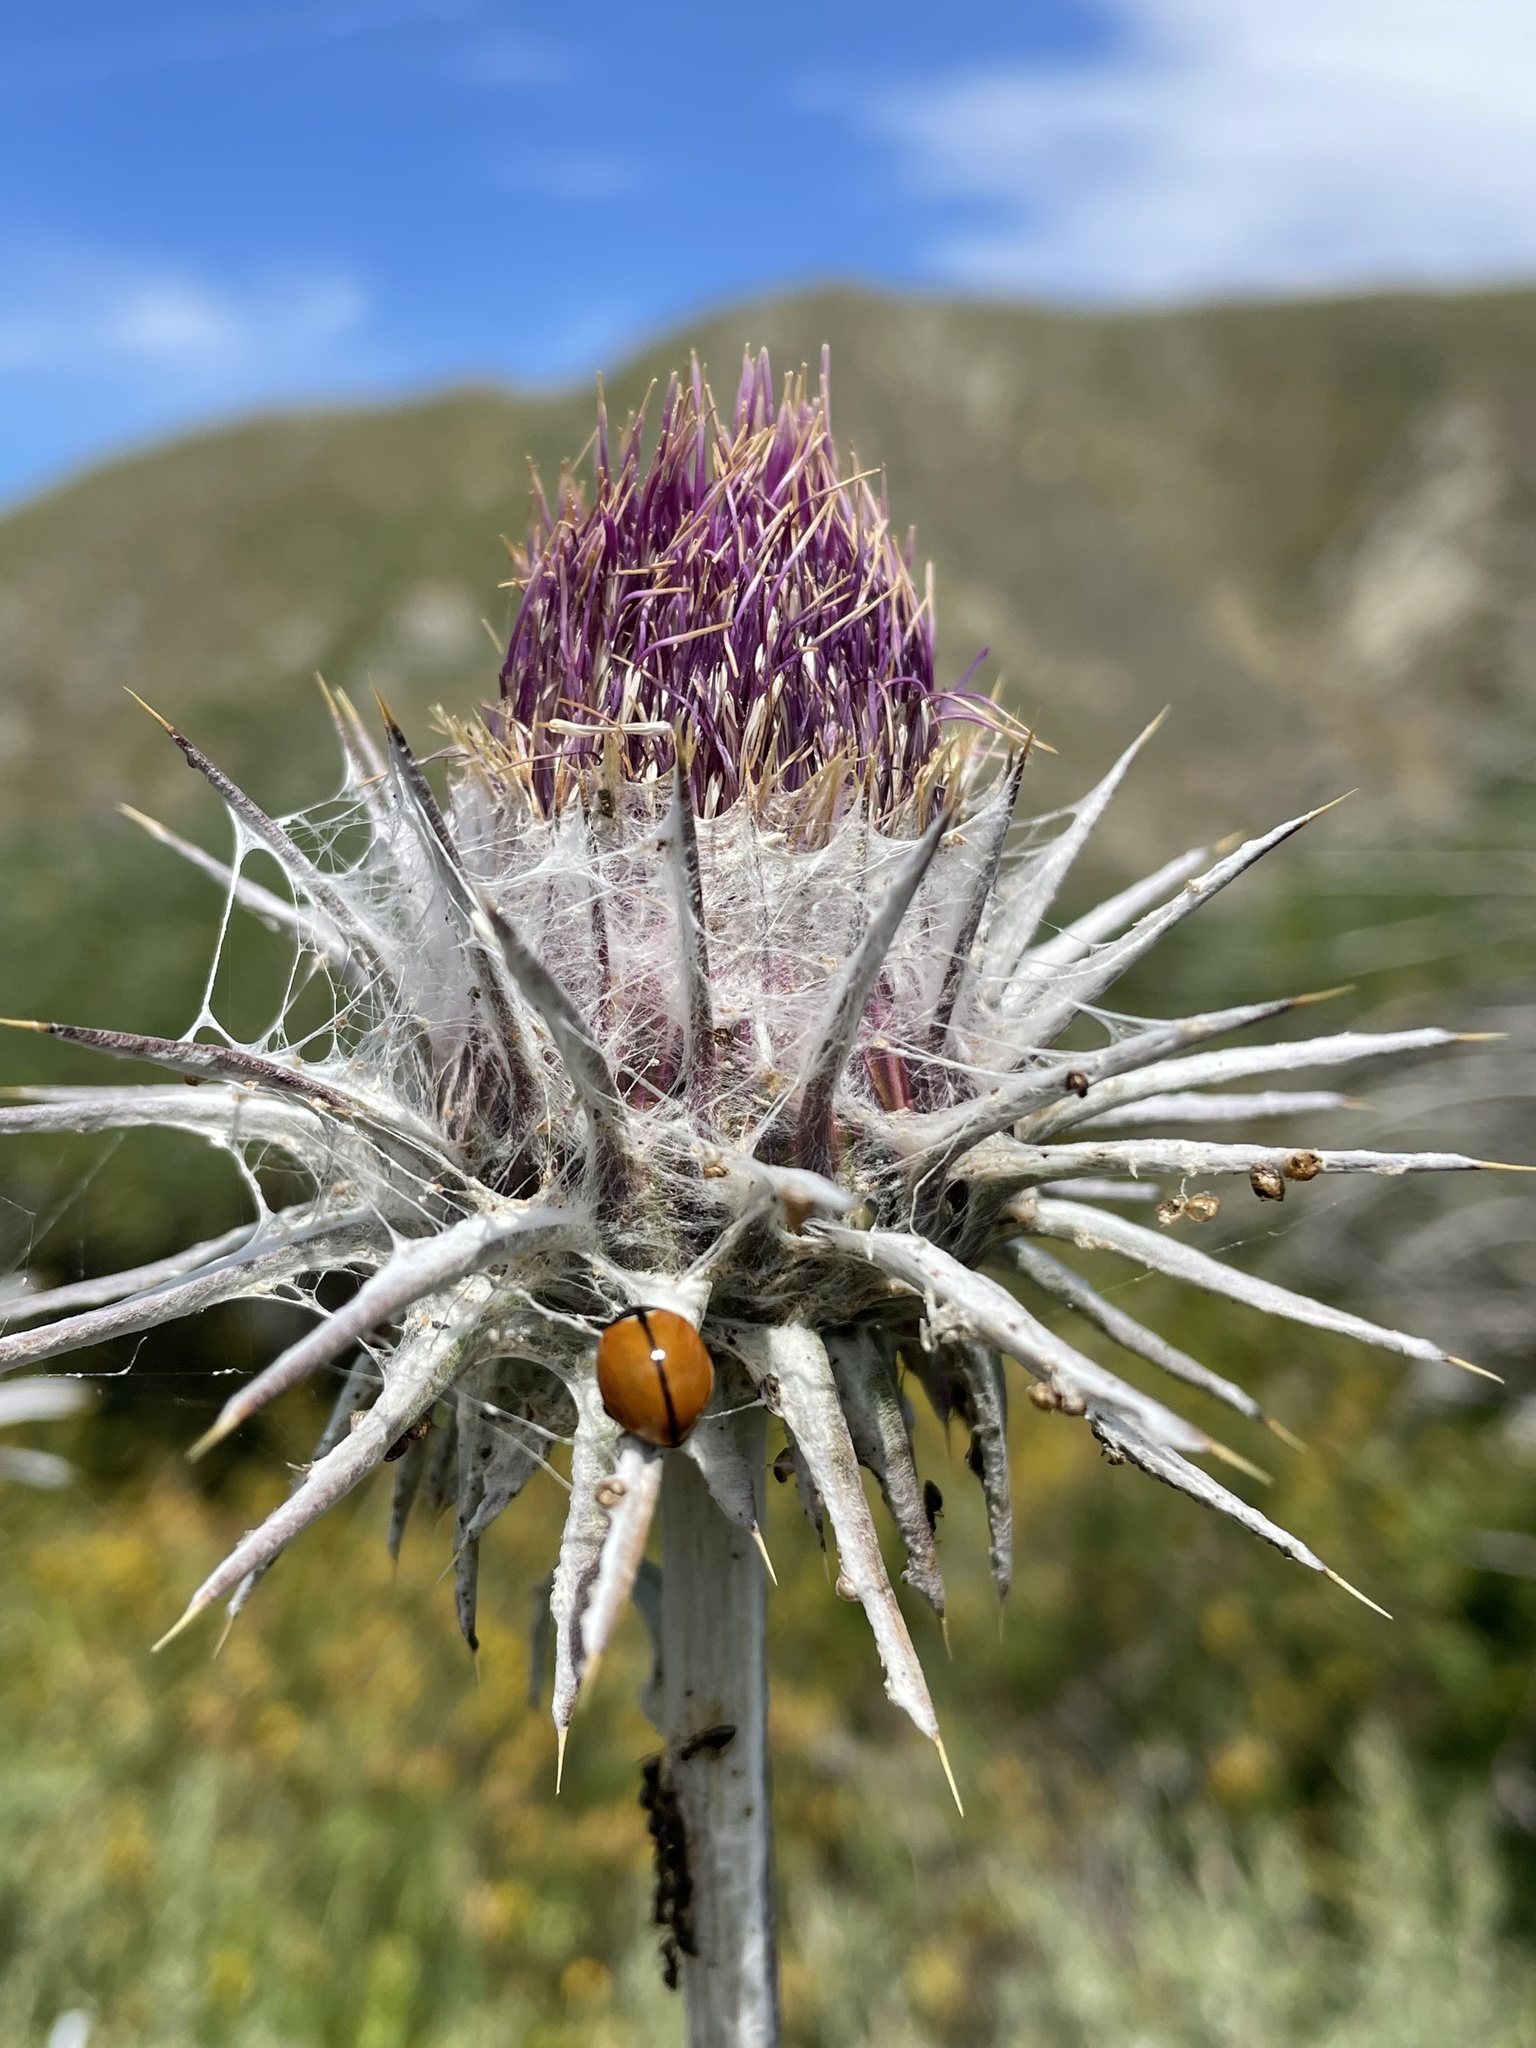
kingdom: Plantae
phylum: Tracheophyta
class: Magnoliopsida
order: Asterales
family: Asteraceae
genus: Cirsium
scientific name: Cirsium occidentale
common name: Western thistle
